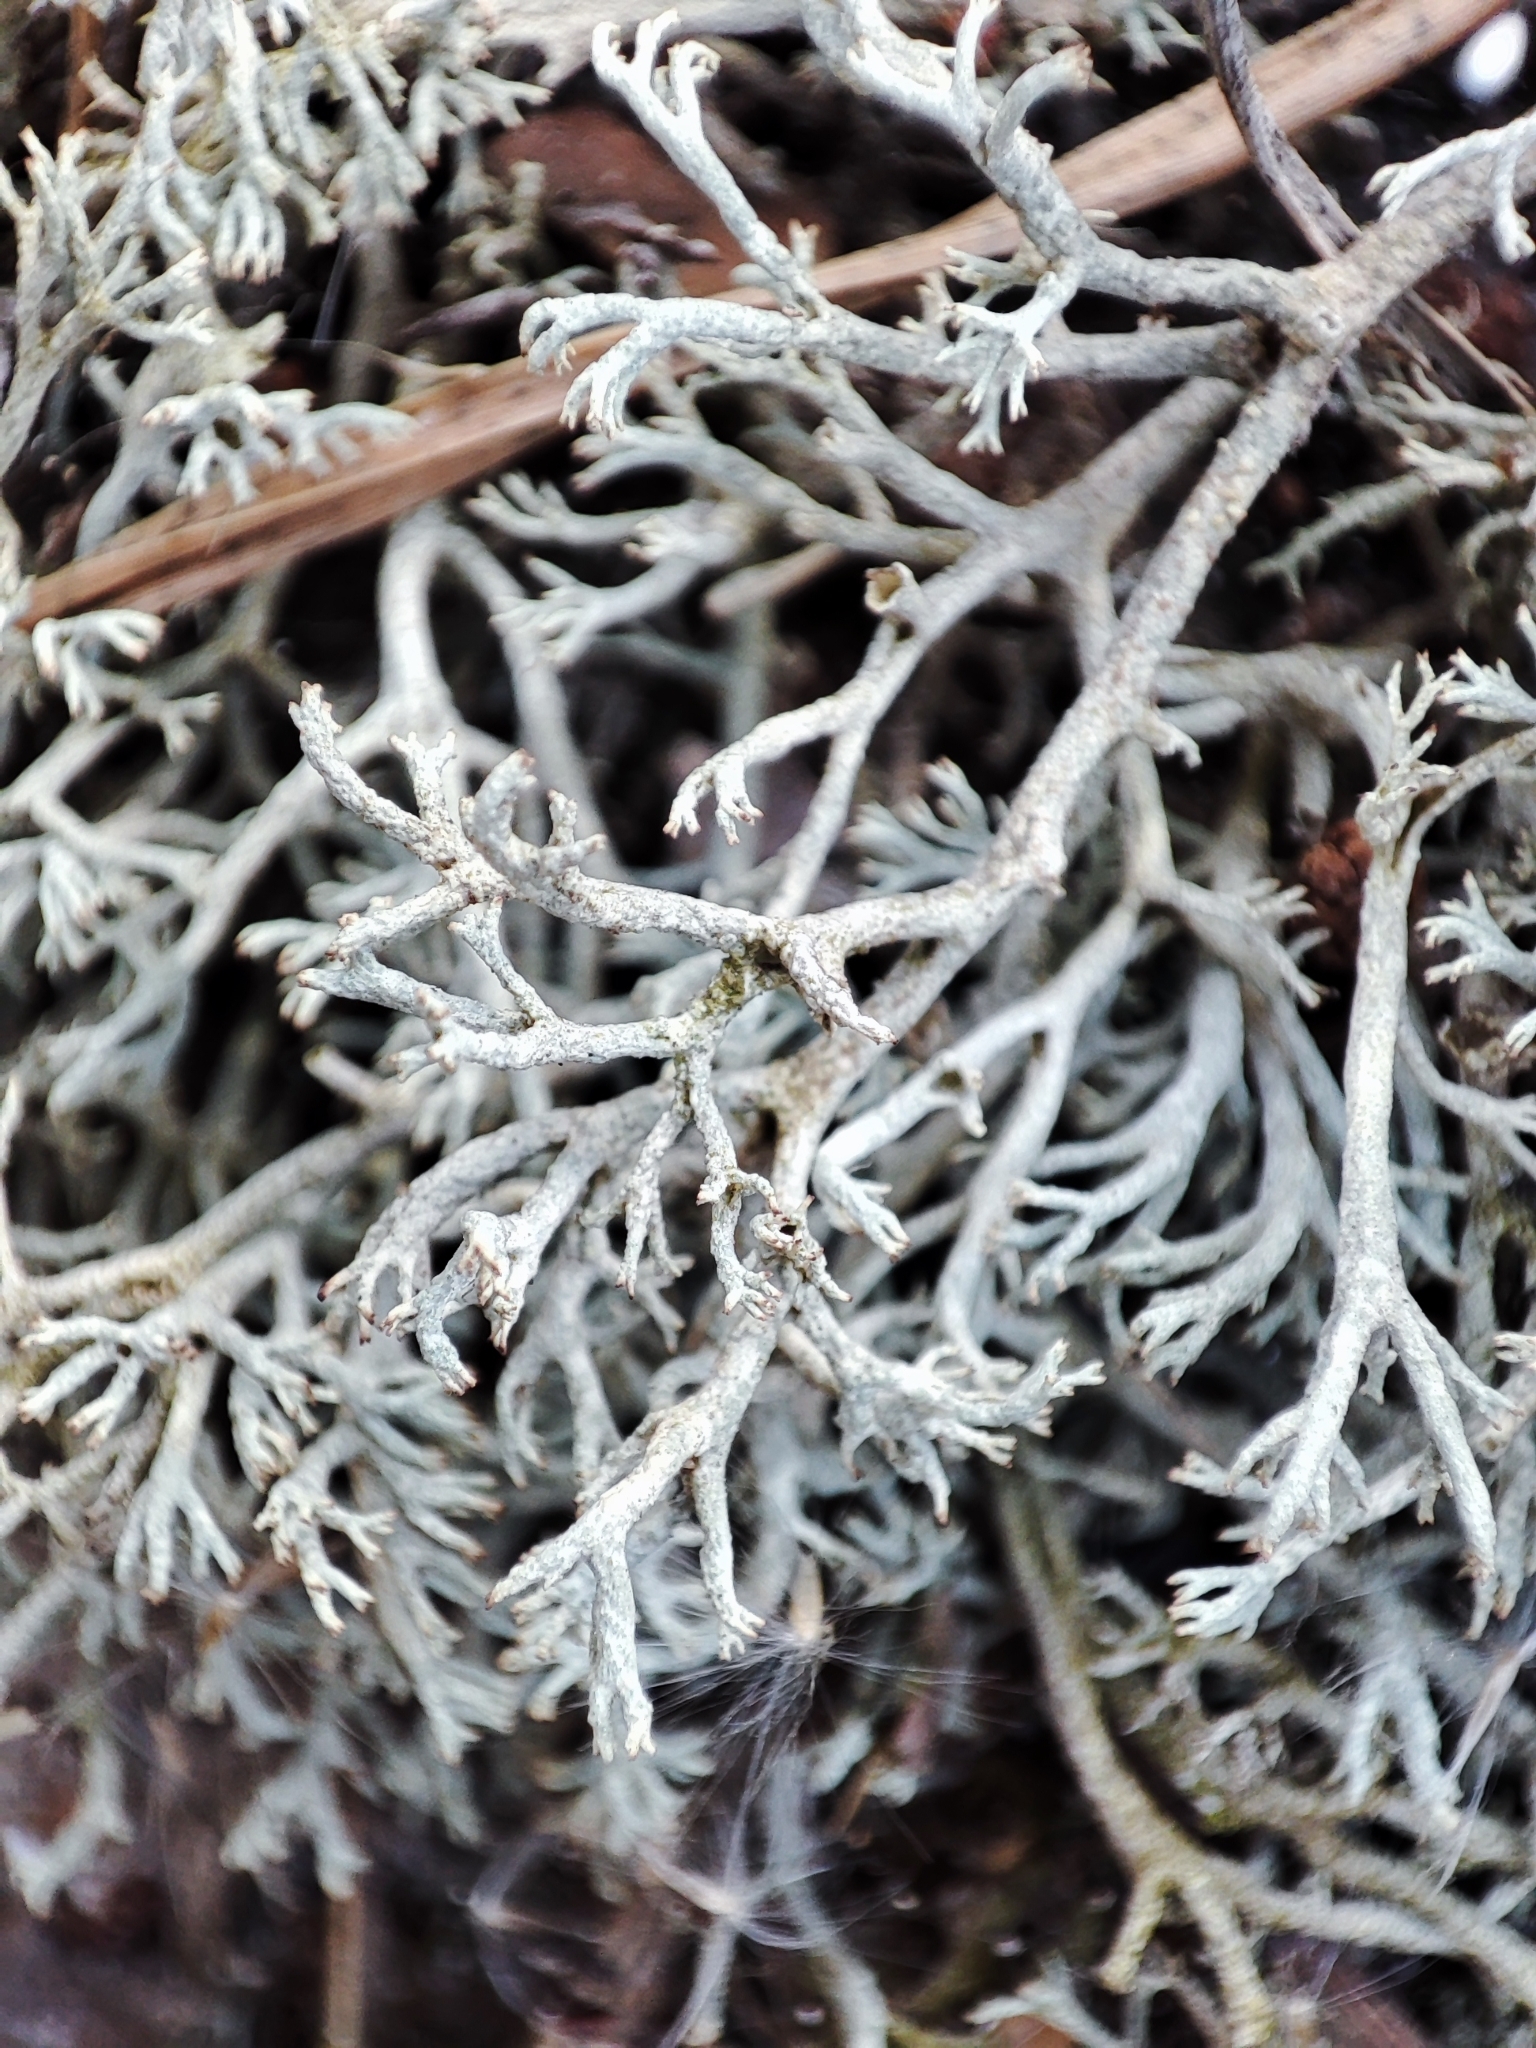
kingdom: Fungi
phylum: Ascomycota
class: Lecanoromycetes
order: Lecanorales
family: Cladoniaceae
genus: Cladonia
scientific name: Cladonia mitis
